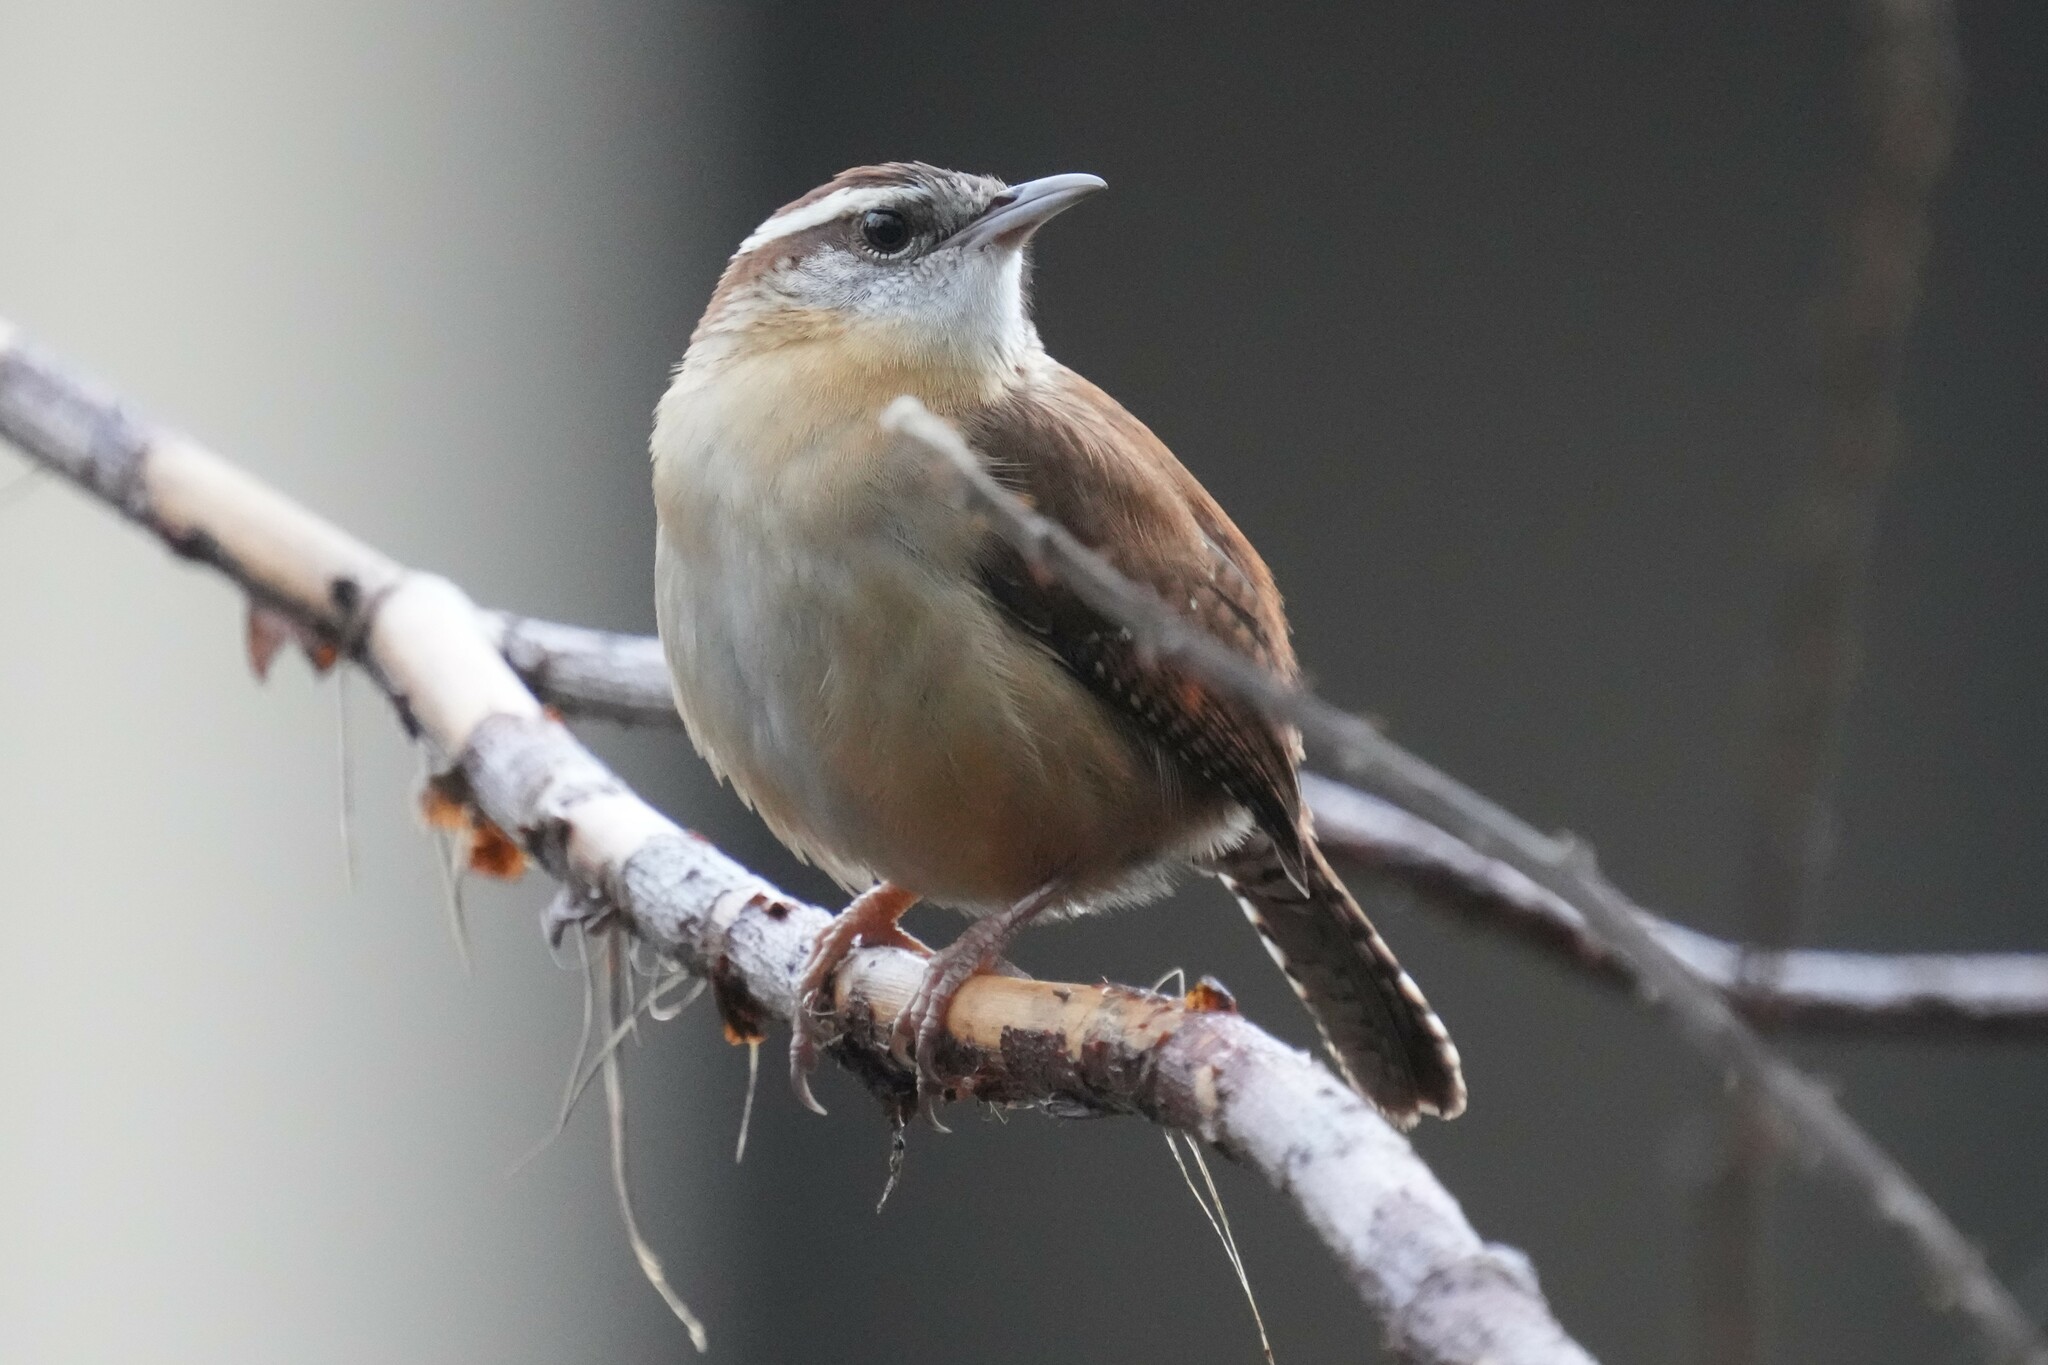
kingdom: Animalia
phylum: Chordata
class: Aves
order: Passeriformes
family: Troglodytidae
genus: Thryothorus
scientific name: Thryothorus ludovicianus
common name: Carolina wren
